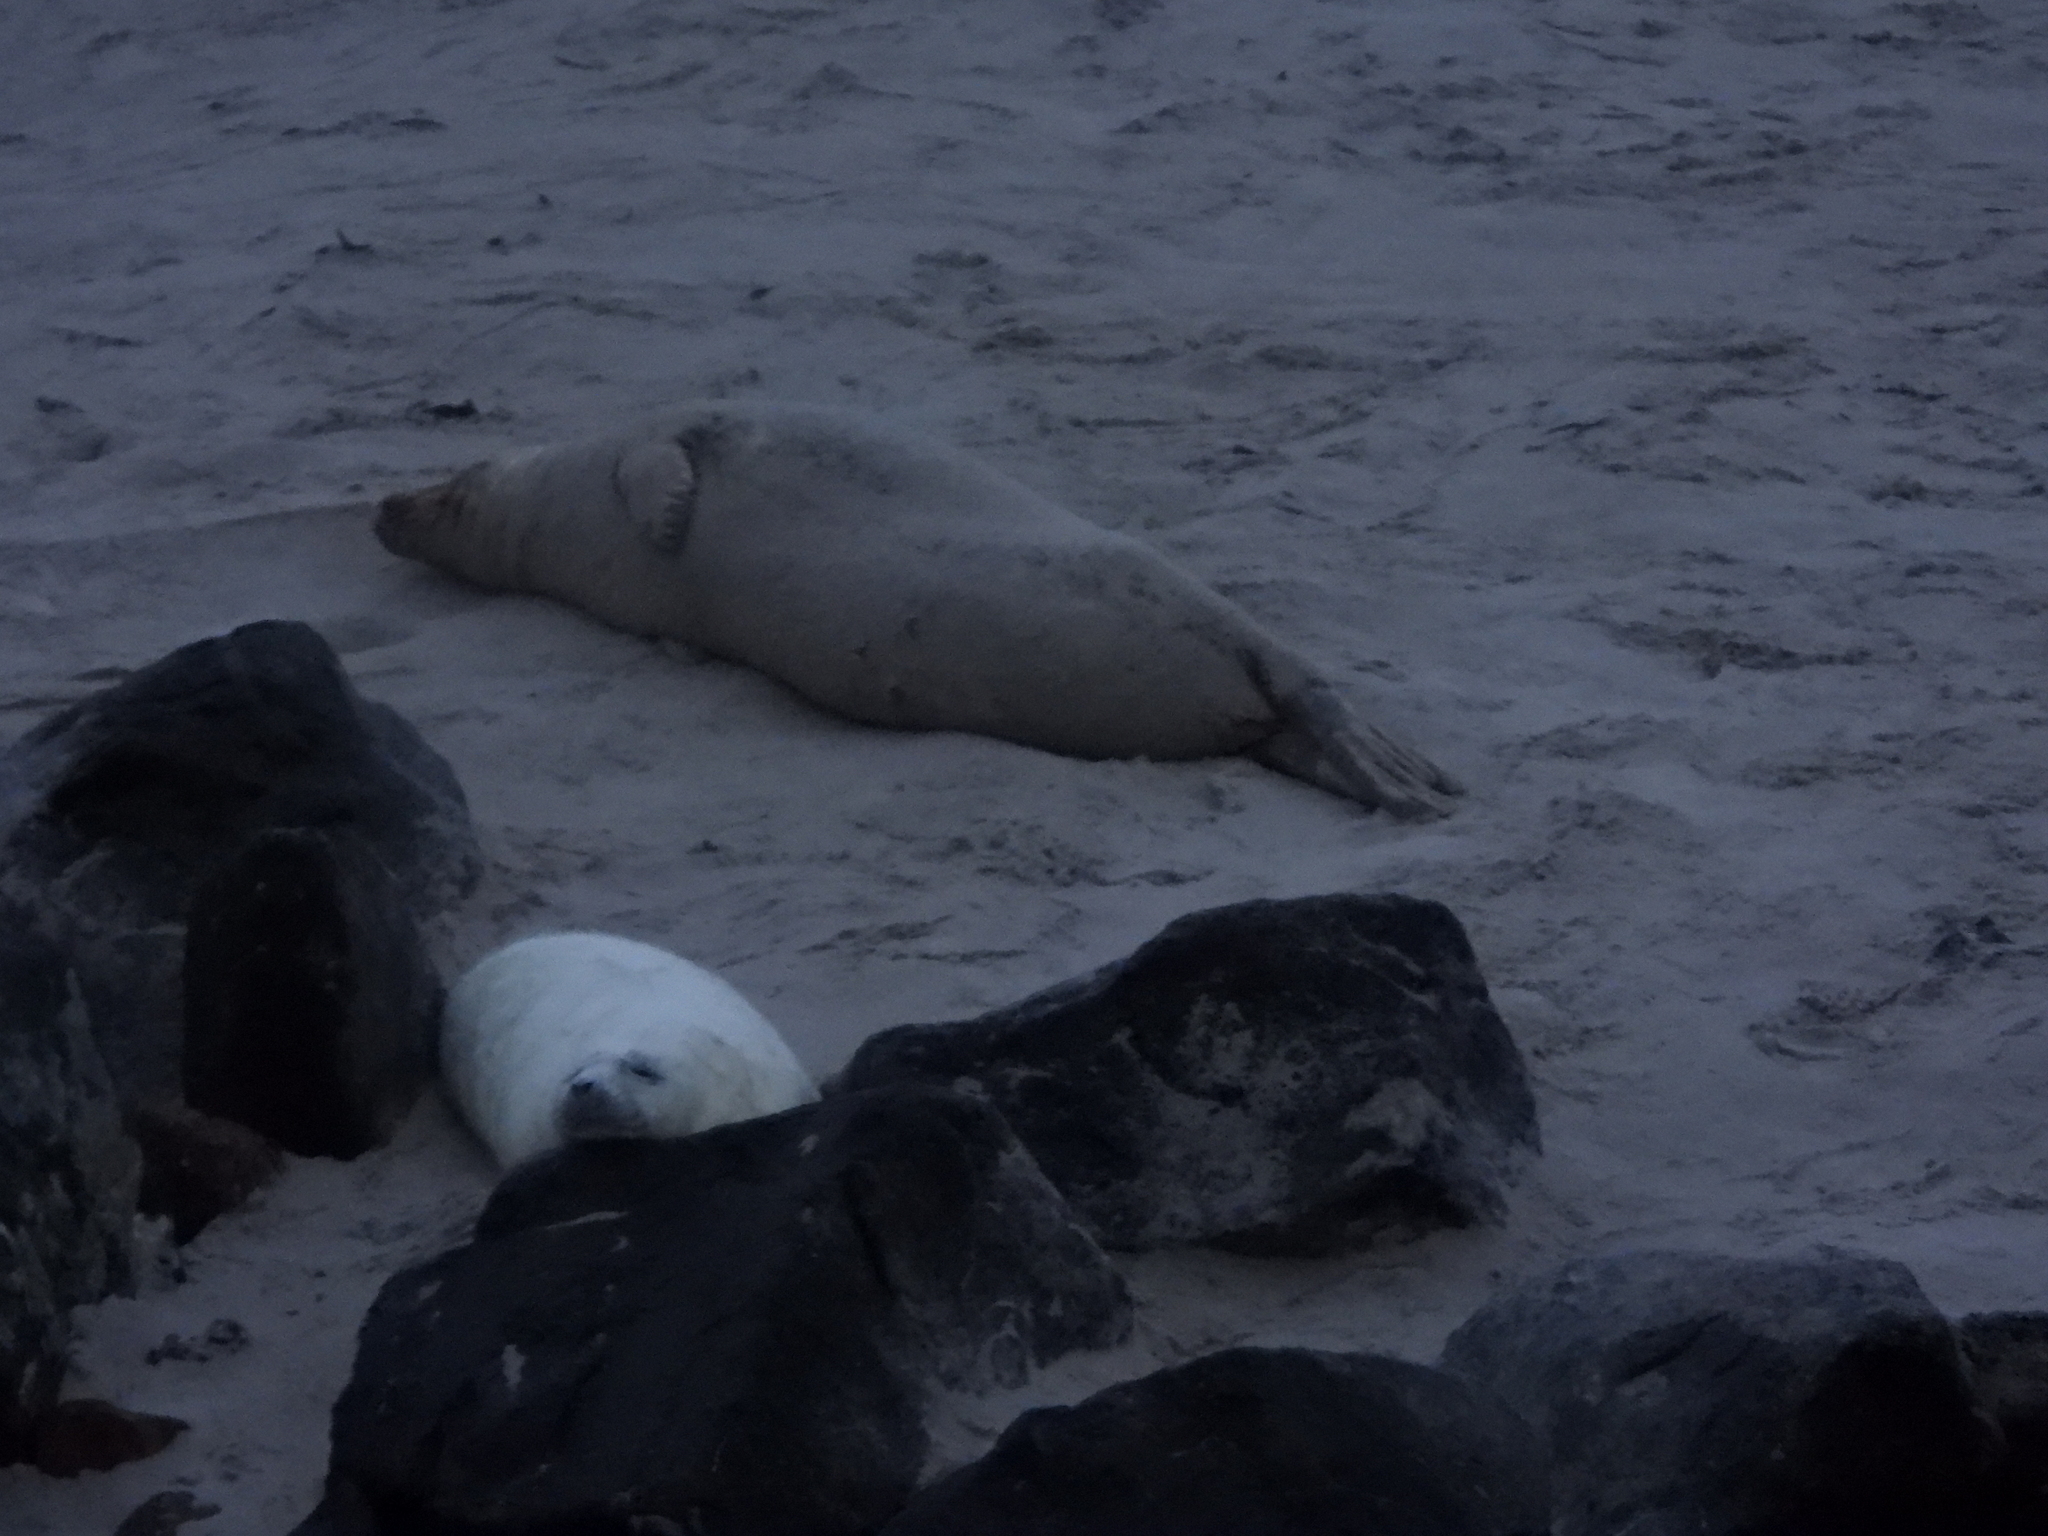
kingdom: Animalia
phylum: Chordata
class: Mammalia
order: Carnivora
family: Phocidae
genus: Halichoerus
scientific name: Halichoerus grypus
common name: Grey seal
